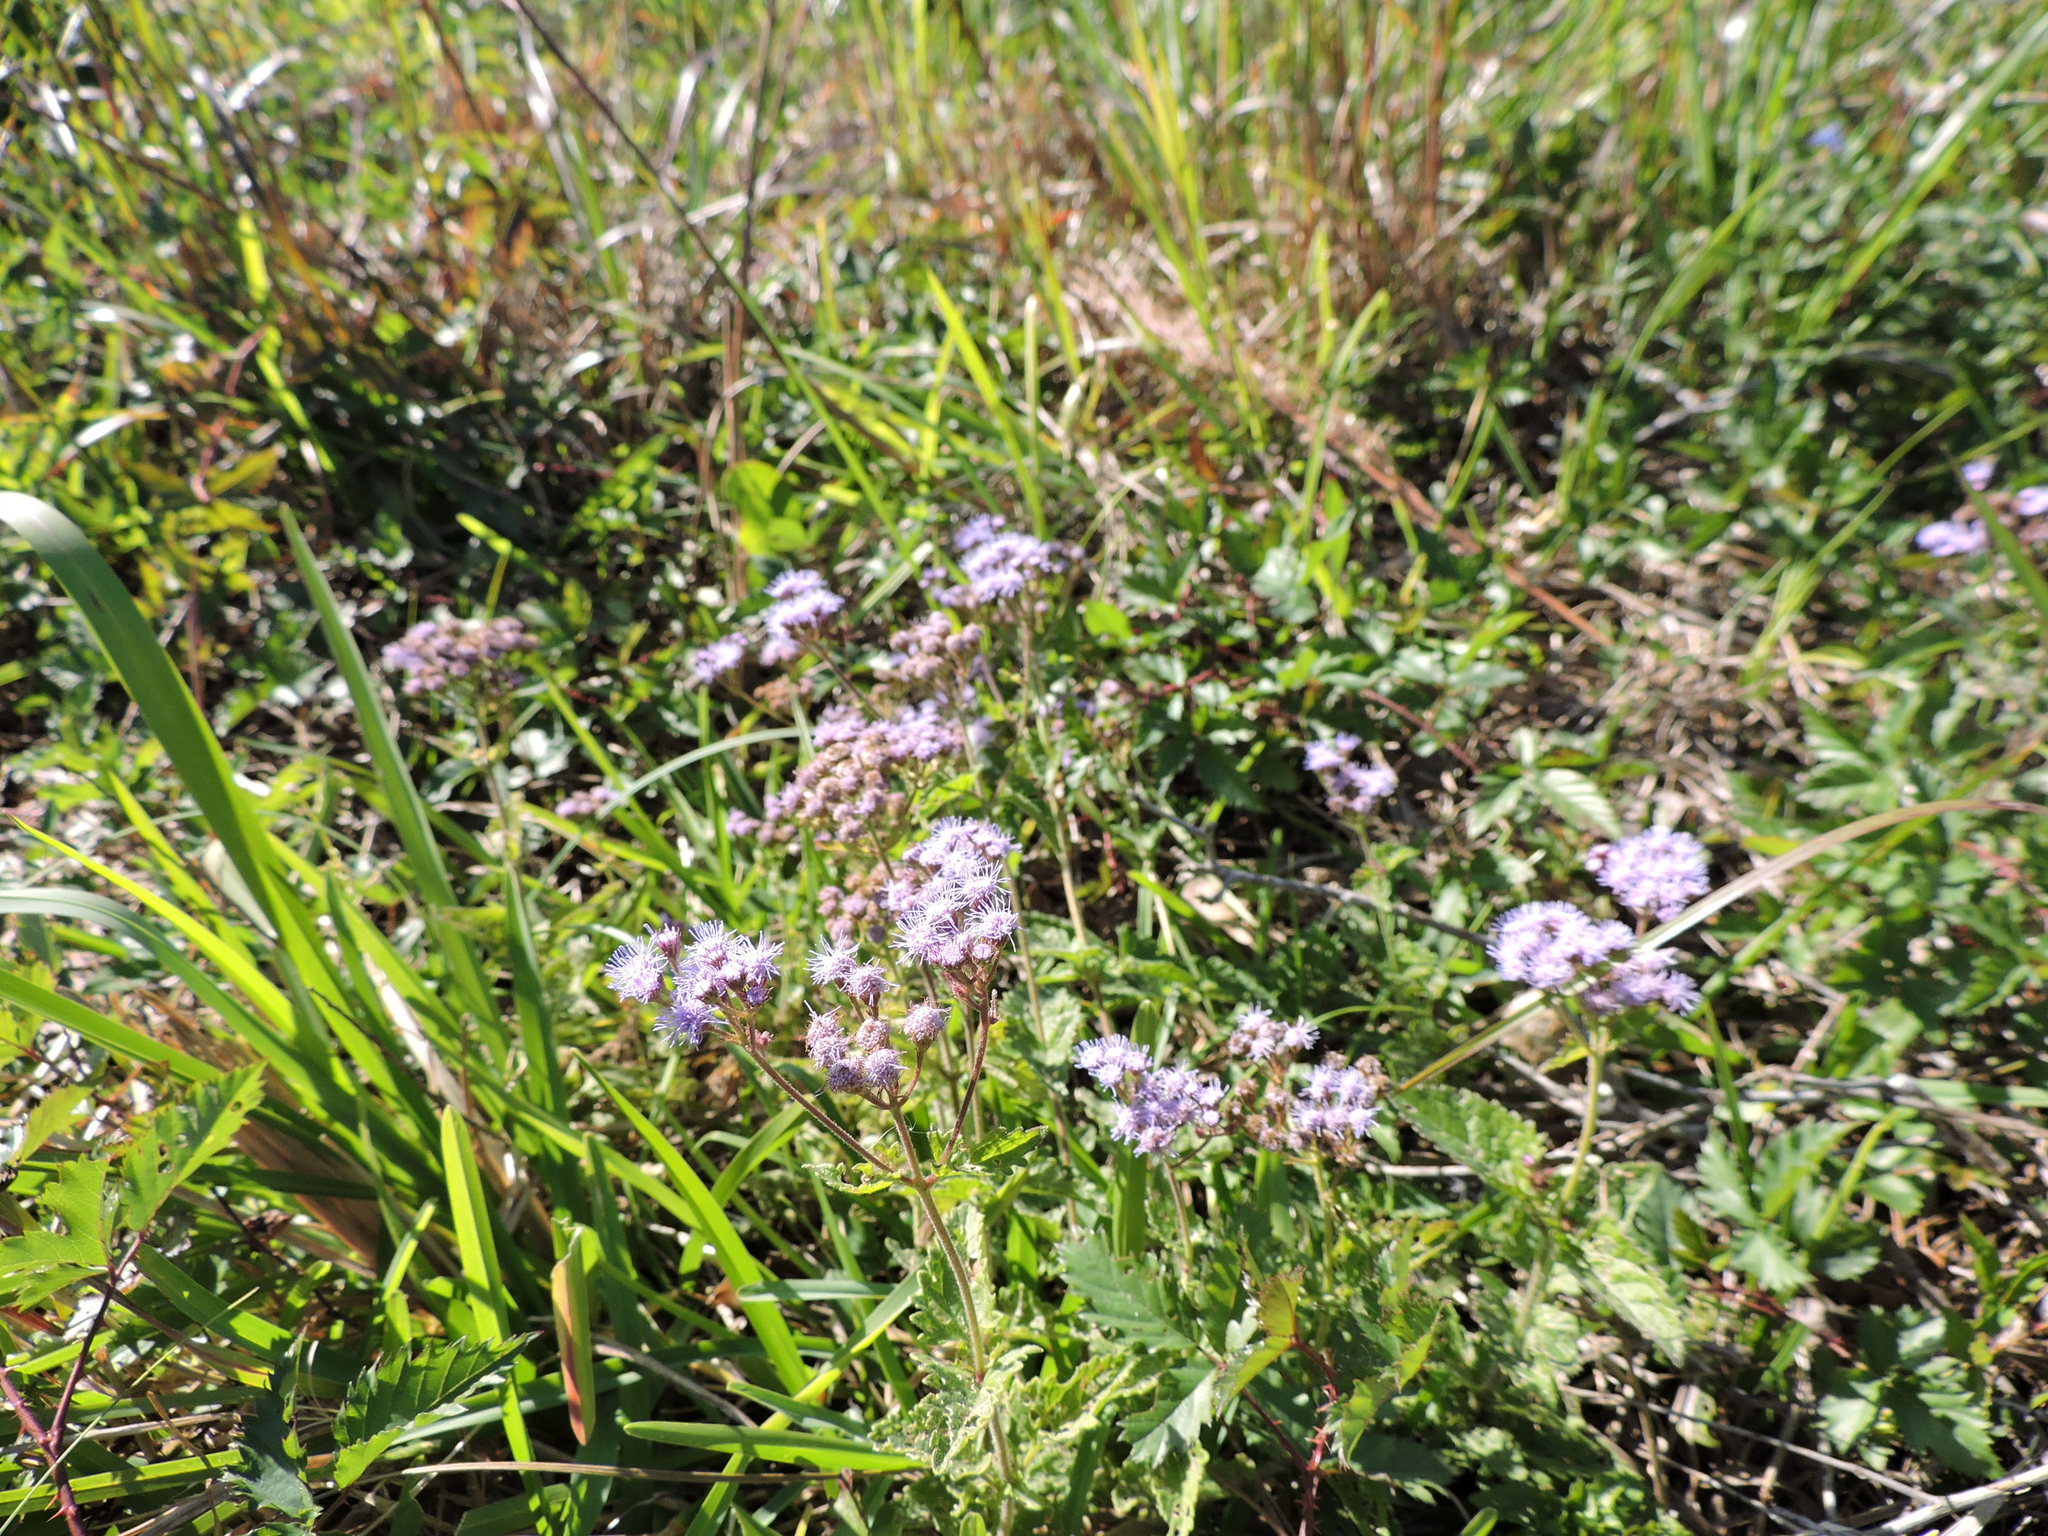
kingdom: Plantae
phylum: Tracheophyta
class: Magnoliopsida
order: Asterales
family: Asteraceae
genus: Conoclinium
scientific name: Conoclinium coelestinum
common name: Blue mistflower
